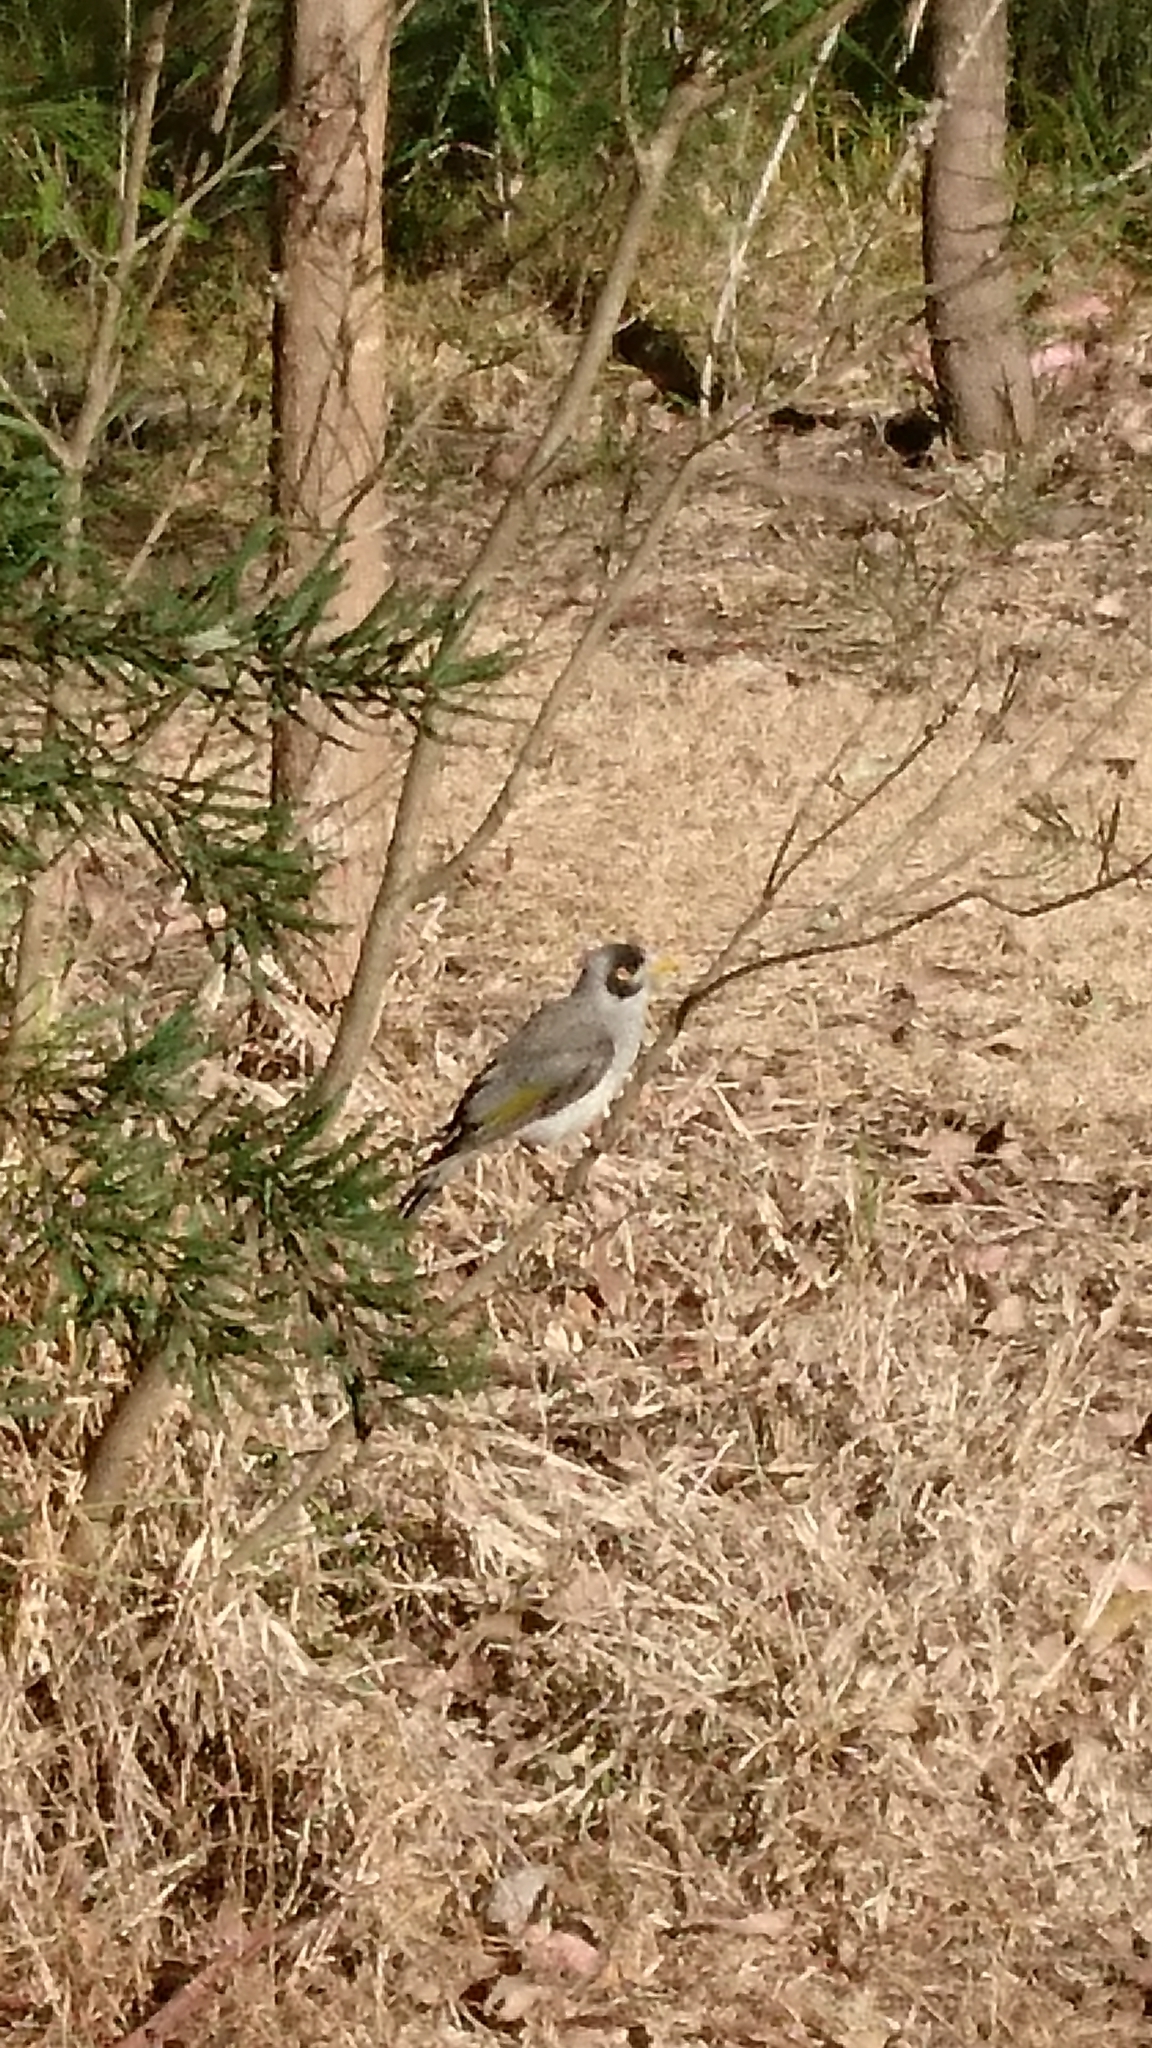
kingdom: Animalia
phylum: Chordata
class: Aves
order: Passeriformes
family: Meliphagidae
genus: Manorina
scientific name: Manorina melanocephala
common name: Noisy miner
